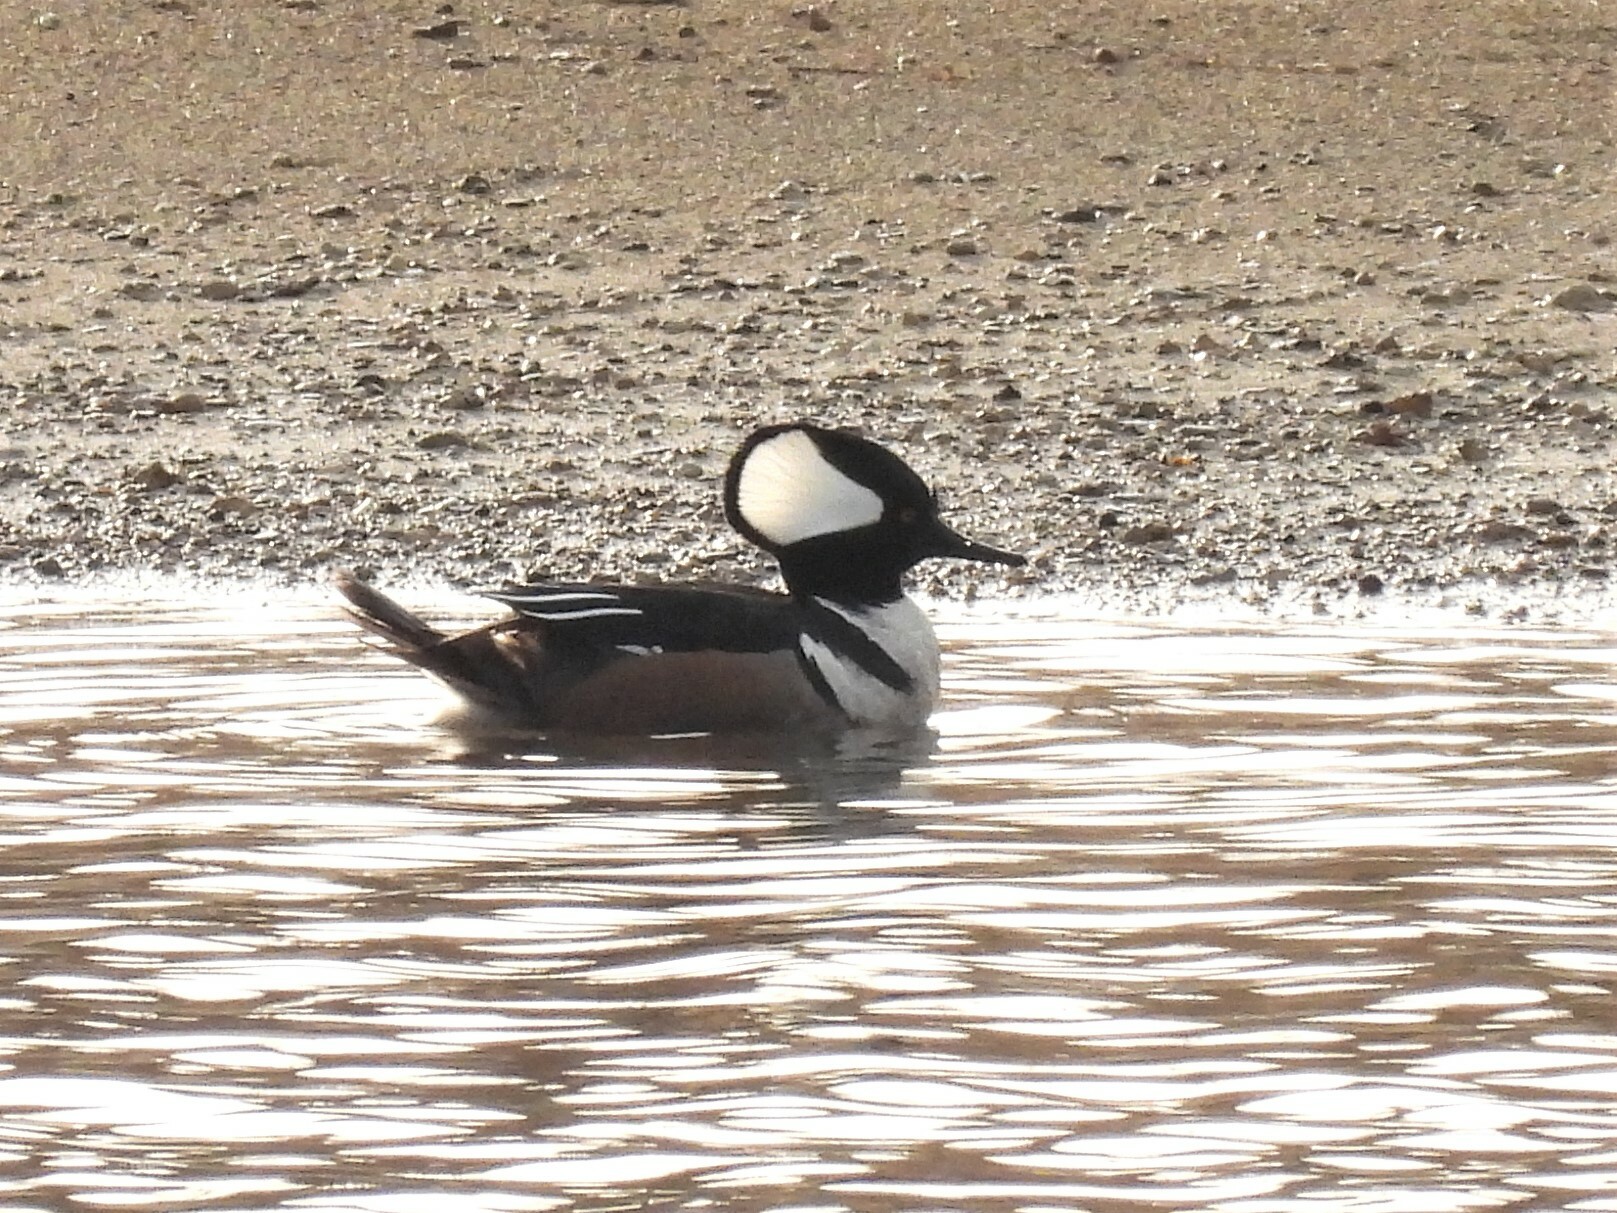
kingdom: Animalia
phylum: Chordata
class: Aves
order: Anseriformes
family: Anatidae
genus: Lophodytes
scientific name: Lophodytes cucullatus
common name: Hooded merganser
